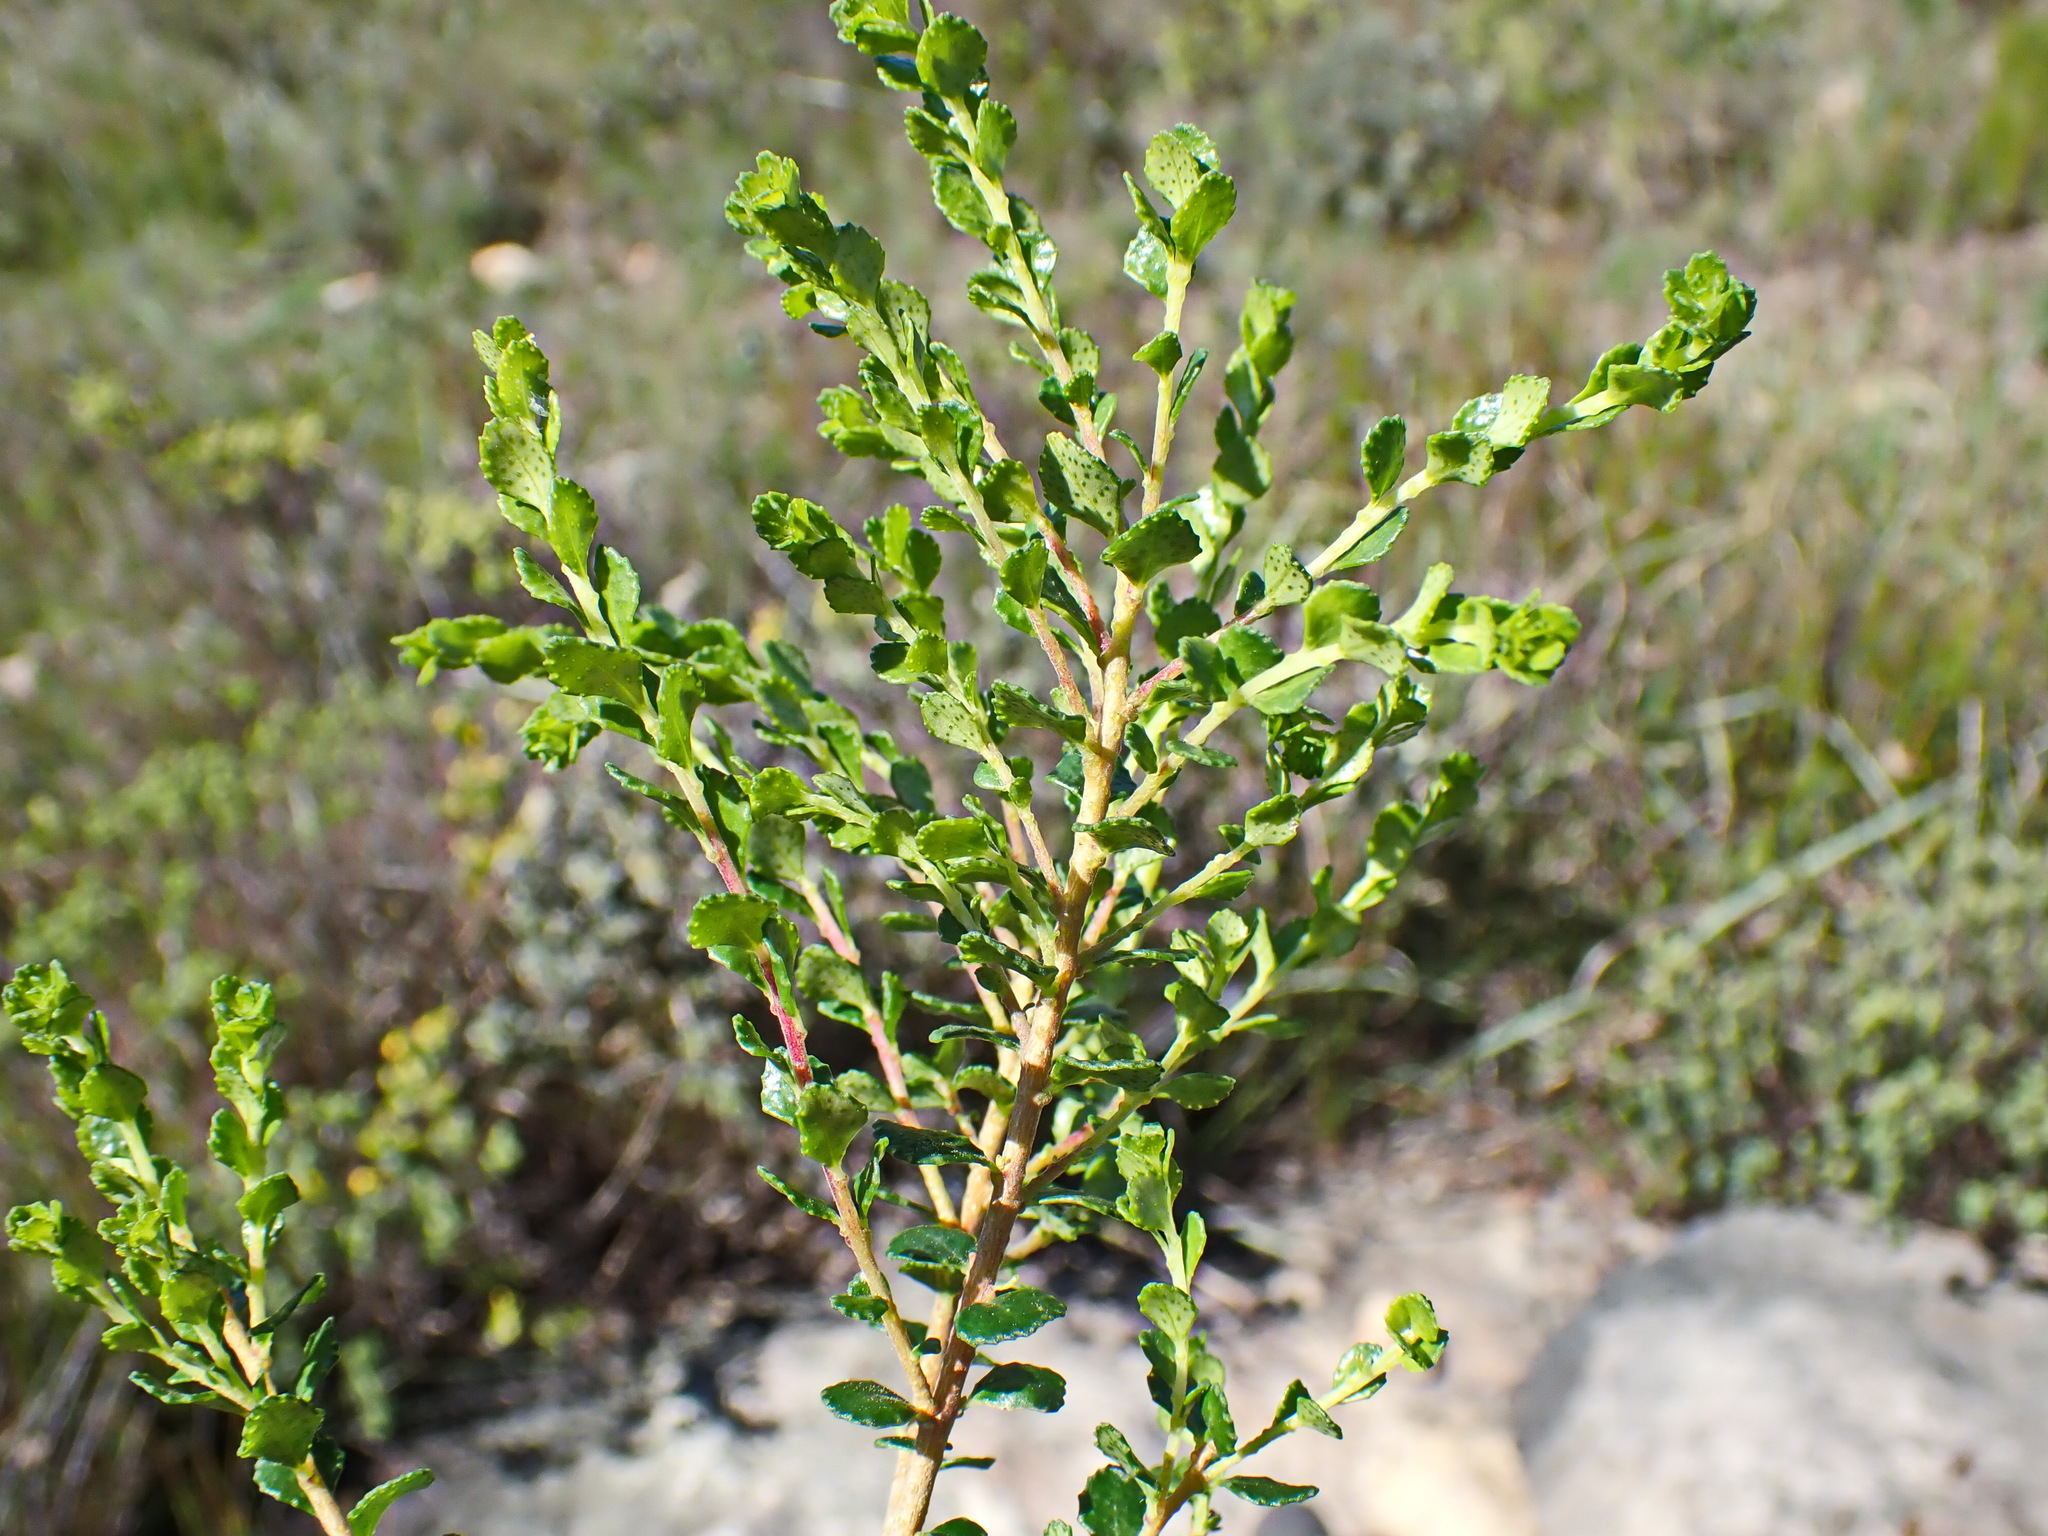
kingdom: Plantae
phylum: Tracheophyta
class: Magnoliopsida
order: Sapindales
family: Rutaceae
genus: Agathosma
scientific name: Agathosma venusta
